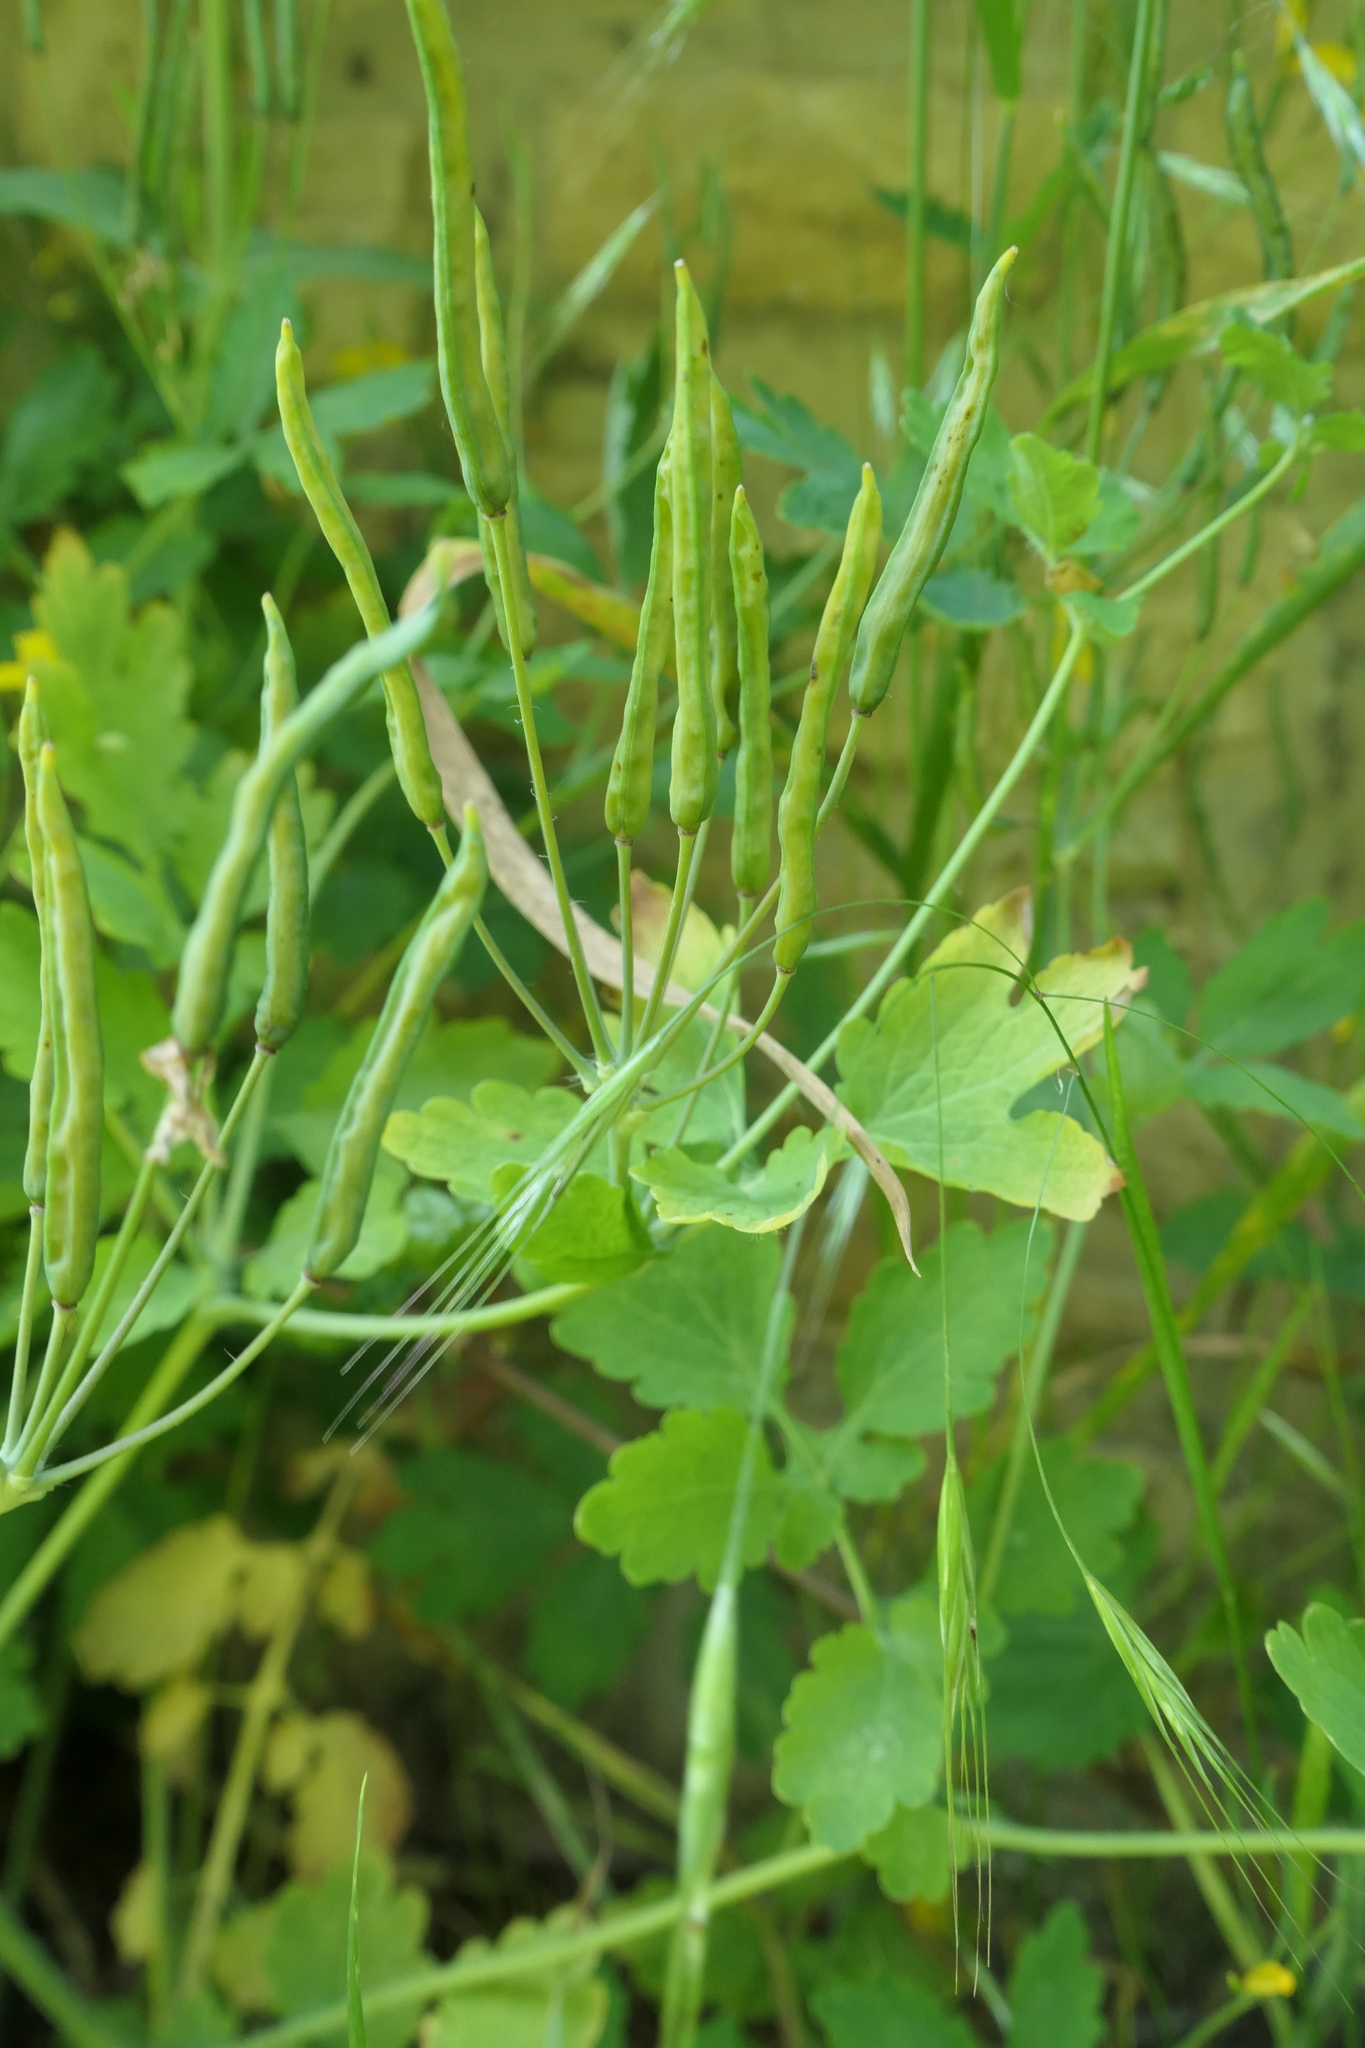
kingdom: Plantae
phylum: Tracheophyta
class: Magnoliopsida
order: Ranunculales
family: Papaveraceae
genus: Chelidonium
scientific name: Chelidonium majus
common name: Greater celandine
